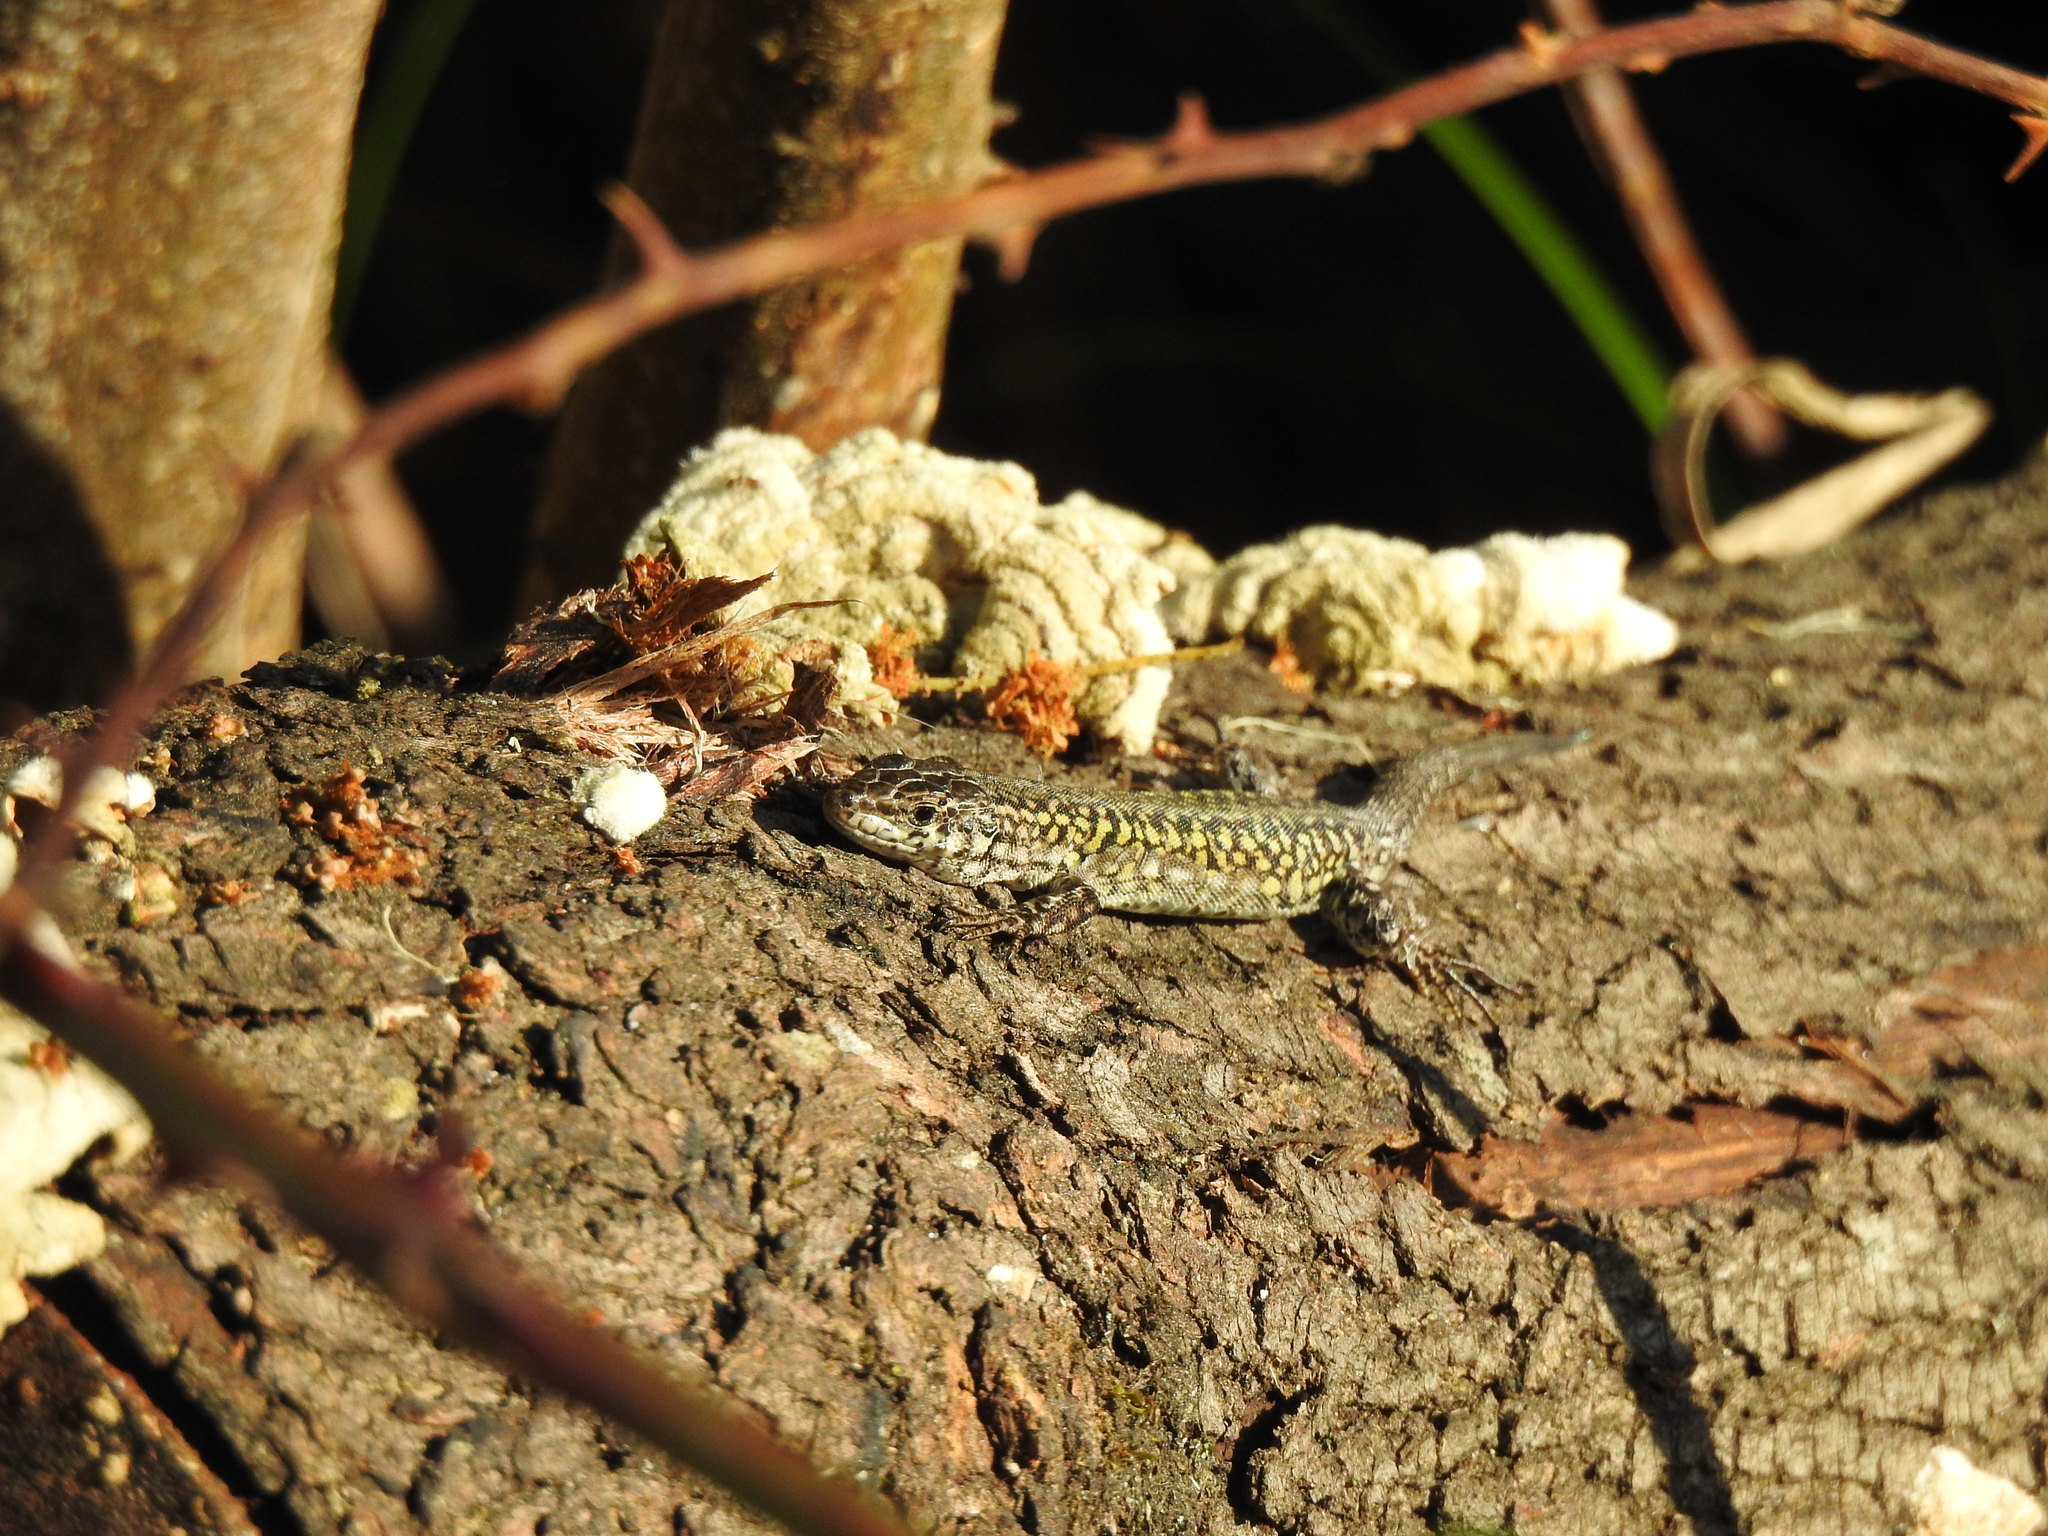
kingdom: Animalia
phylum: Chordata
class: Squamata
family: Lacertidae
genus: Podarcis
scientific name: Podarcis carbonelli
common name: Carbonelli's wall lizard
